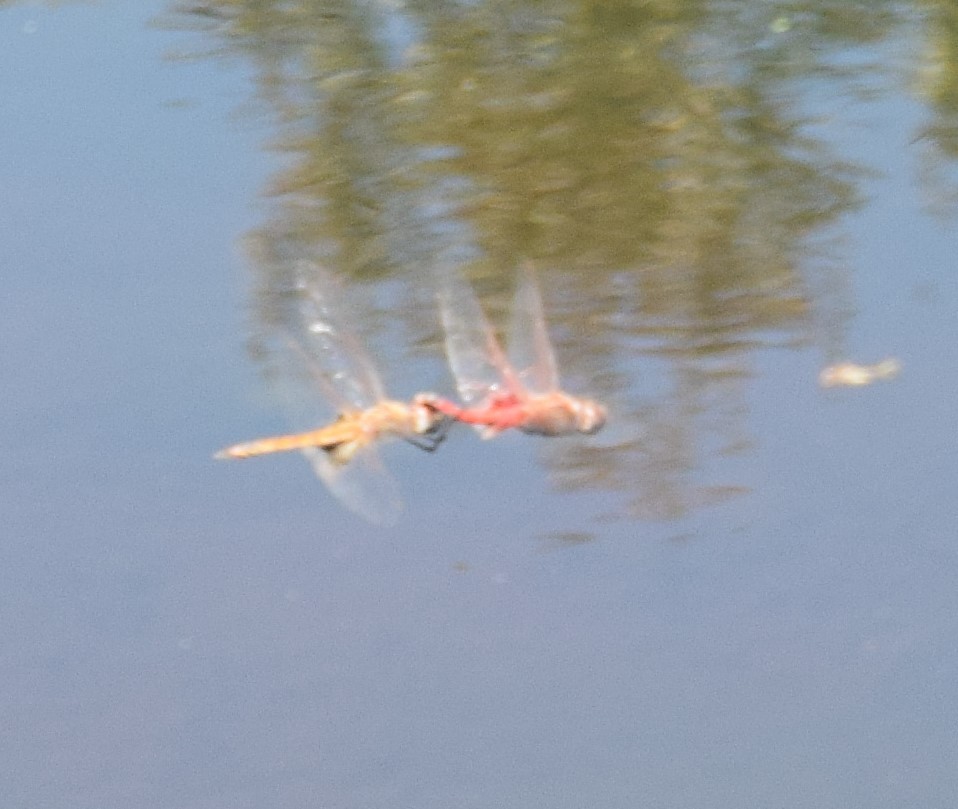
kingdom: Animalia
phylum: Arthropoda
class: Insecta
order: Odonata
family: Libellulidae
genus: Tramea
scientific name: Tramea loewii
